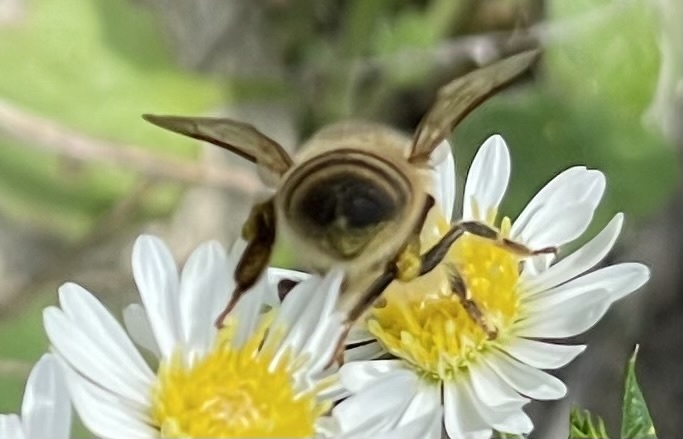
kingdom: Animalia
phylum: Arthropoda
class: Insecta
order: Hymenoptera
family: Apidae
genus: Apis
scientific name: Apis mellifera
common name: Honey bee
